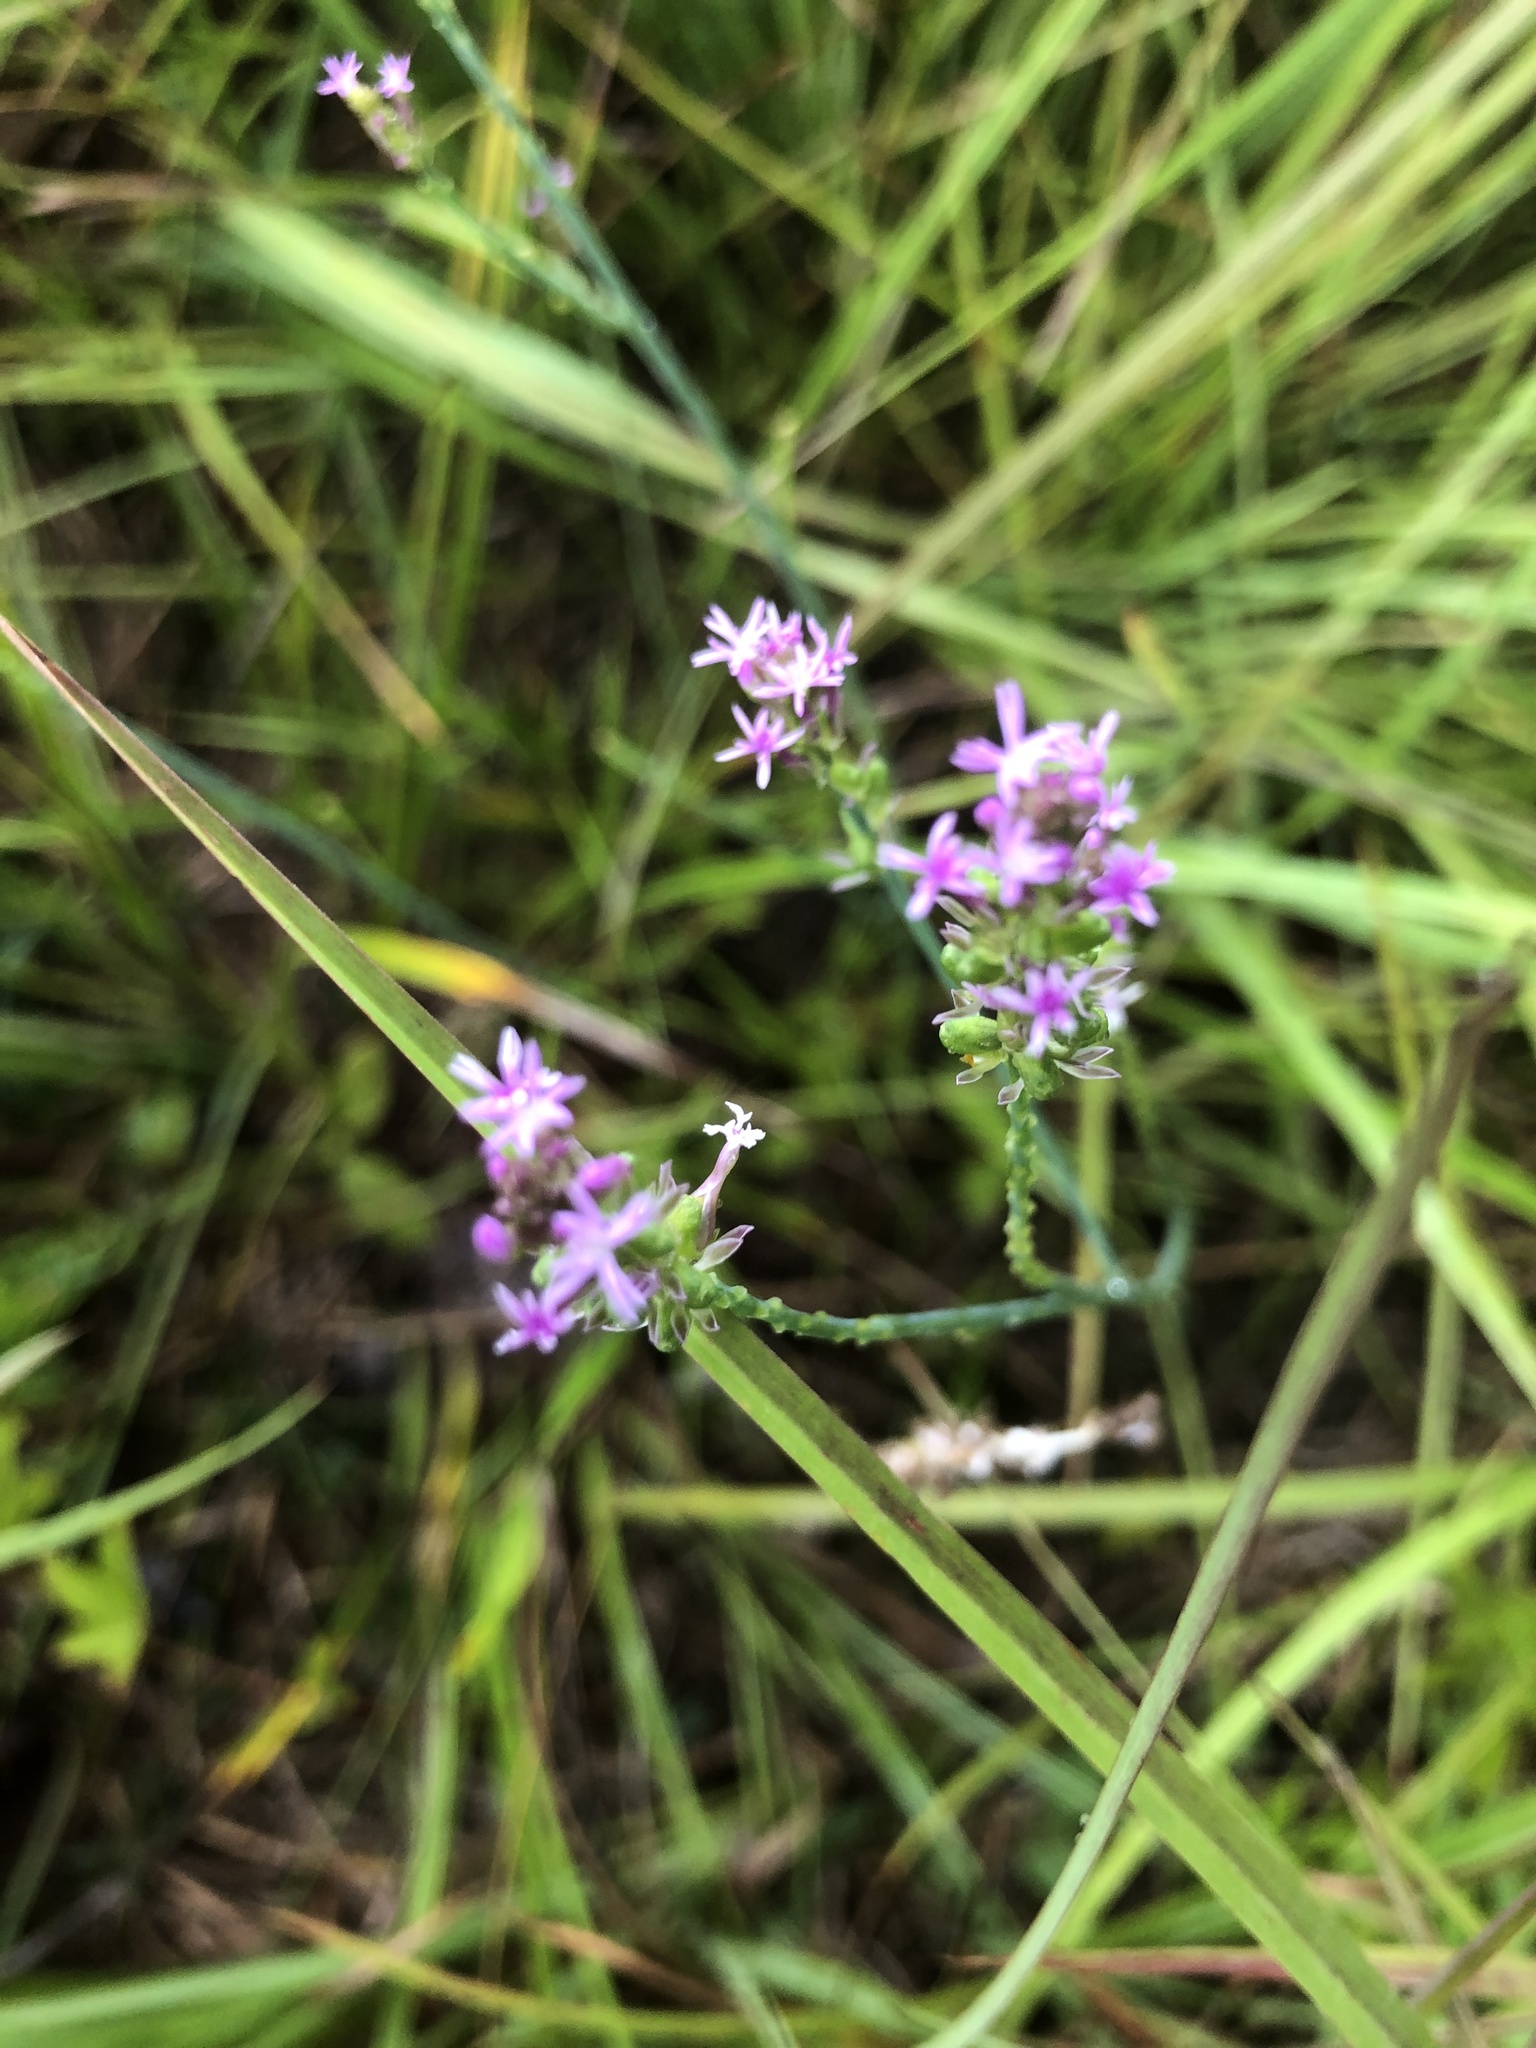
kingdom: Plantae
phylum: Tracheophyta
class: Magnoliopsida
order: Fabales
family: Polygalaceae
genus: Polygala
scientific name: Polygala incarnata
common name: Pink milkwort
